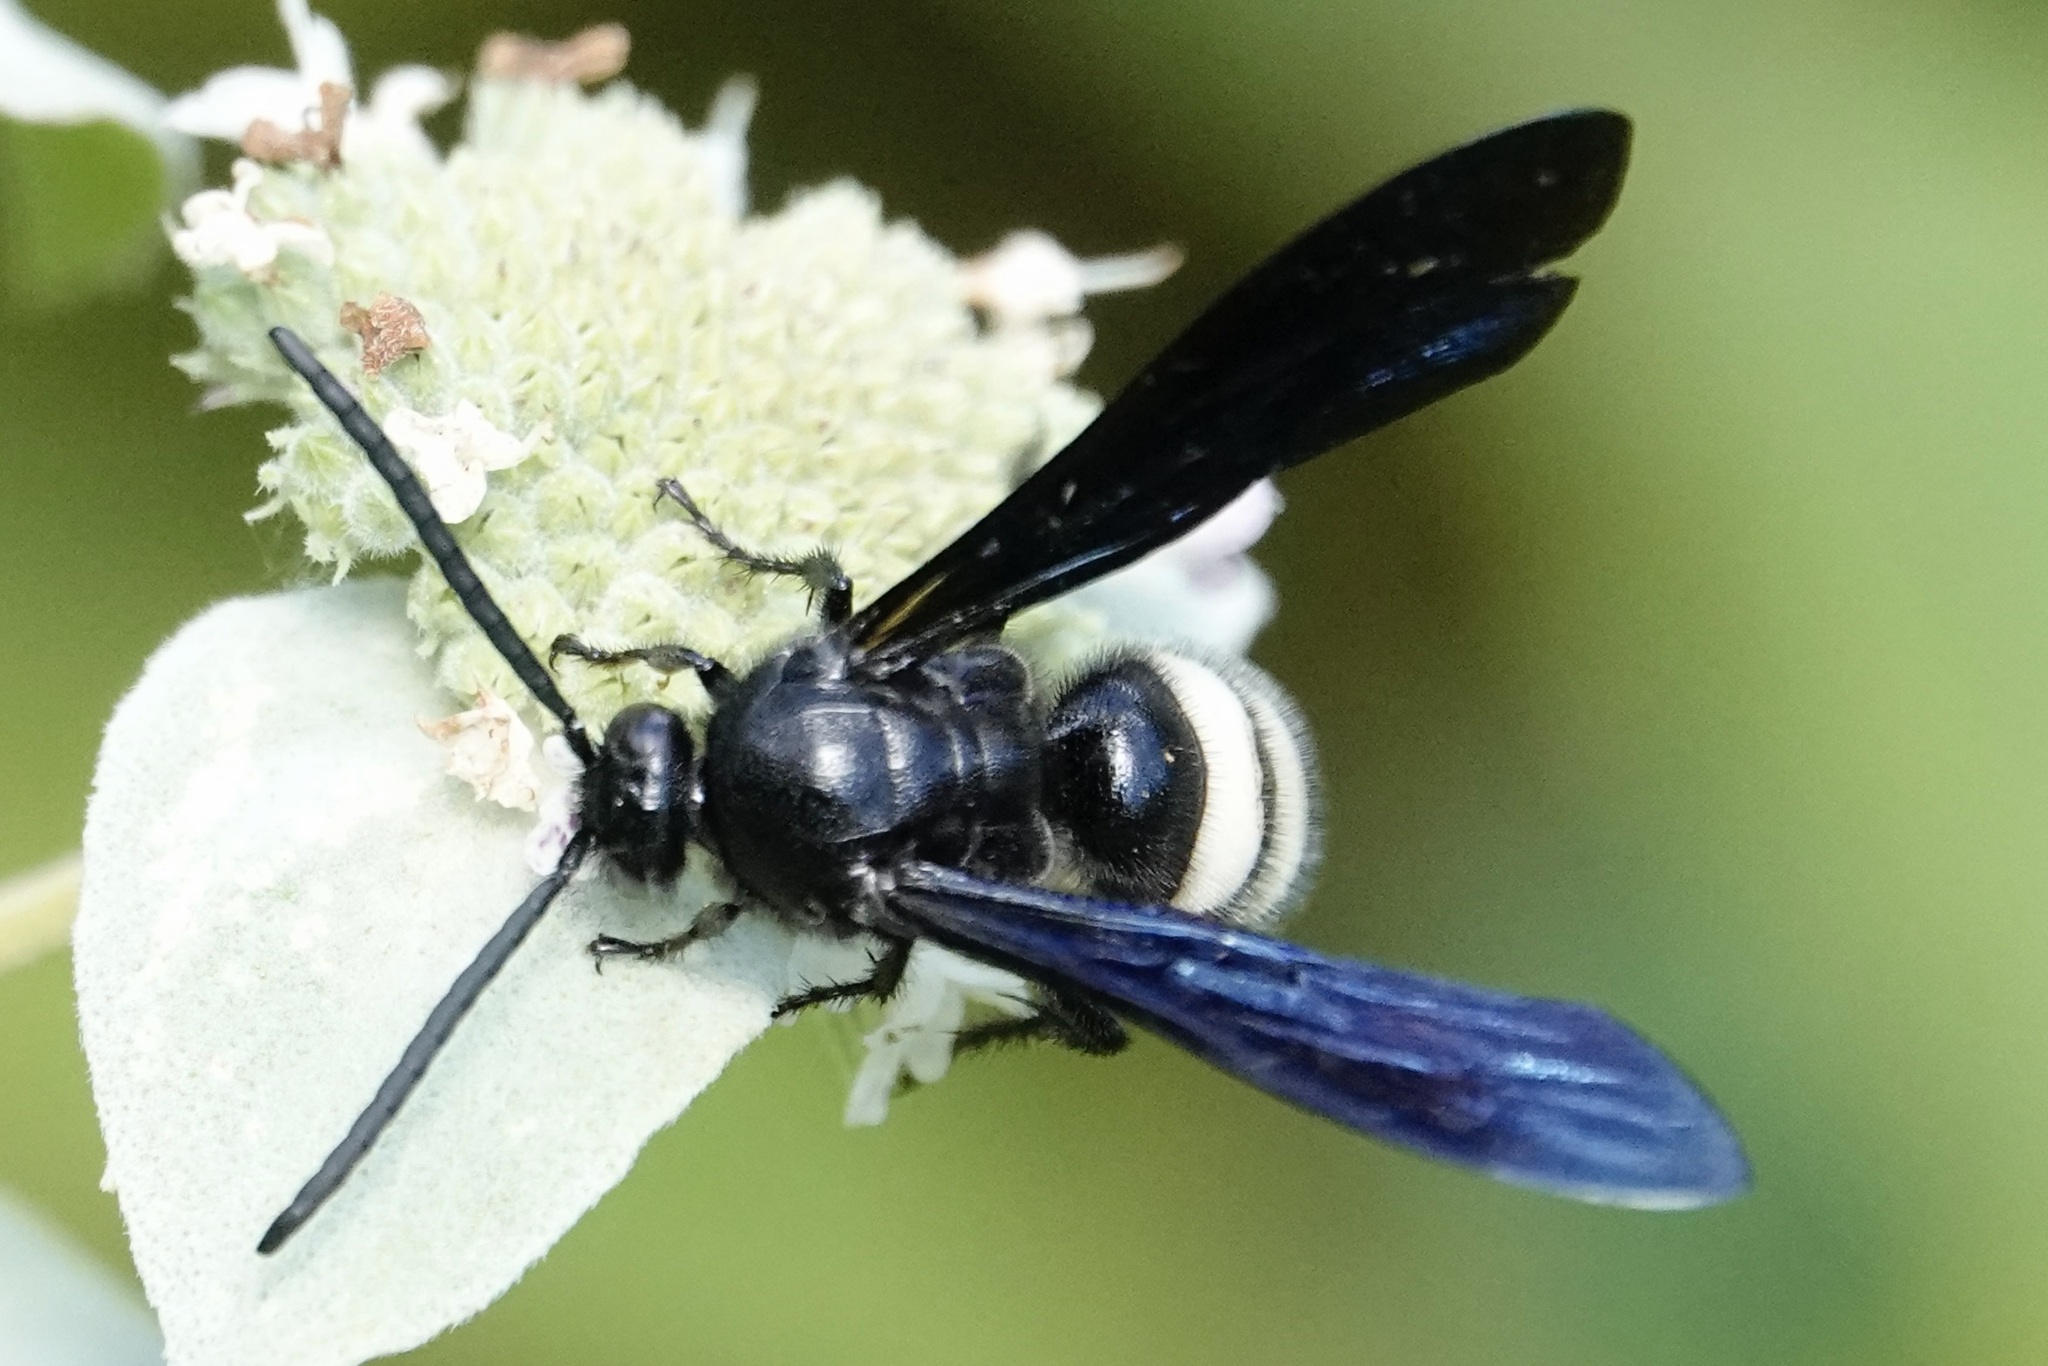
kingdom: Animalia
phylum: Arthropoda
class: Insecta
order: Hymenoptera
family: Scoliidae
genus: Scolia
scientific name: Scolia bicincta
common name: Double-banded scoliid wasp
